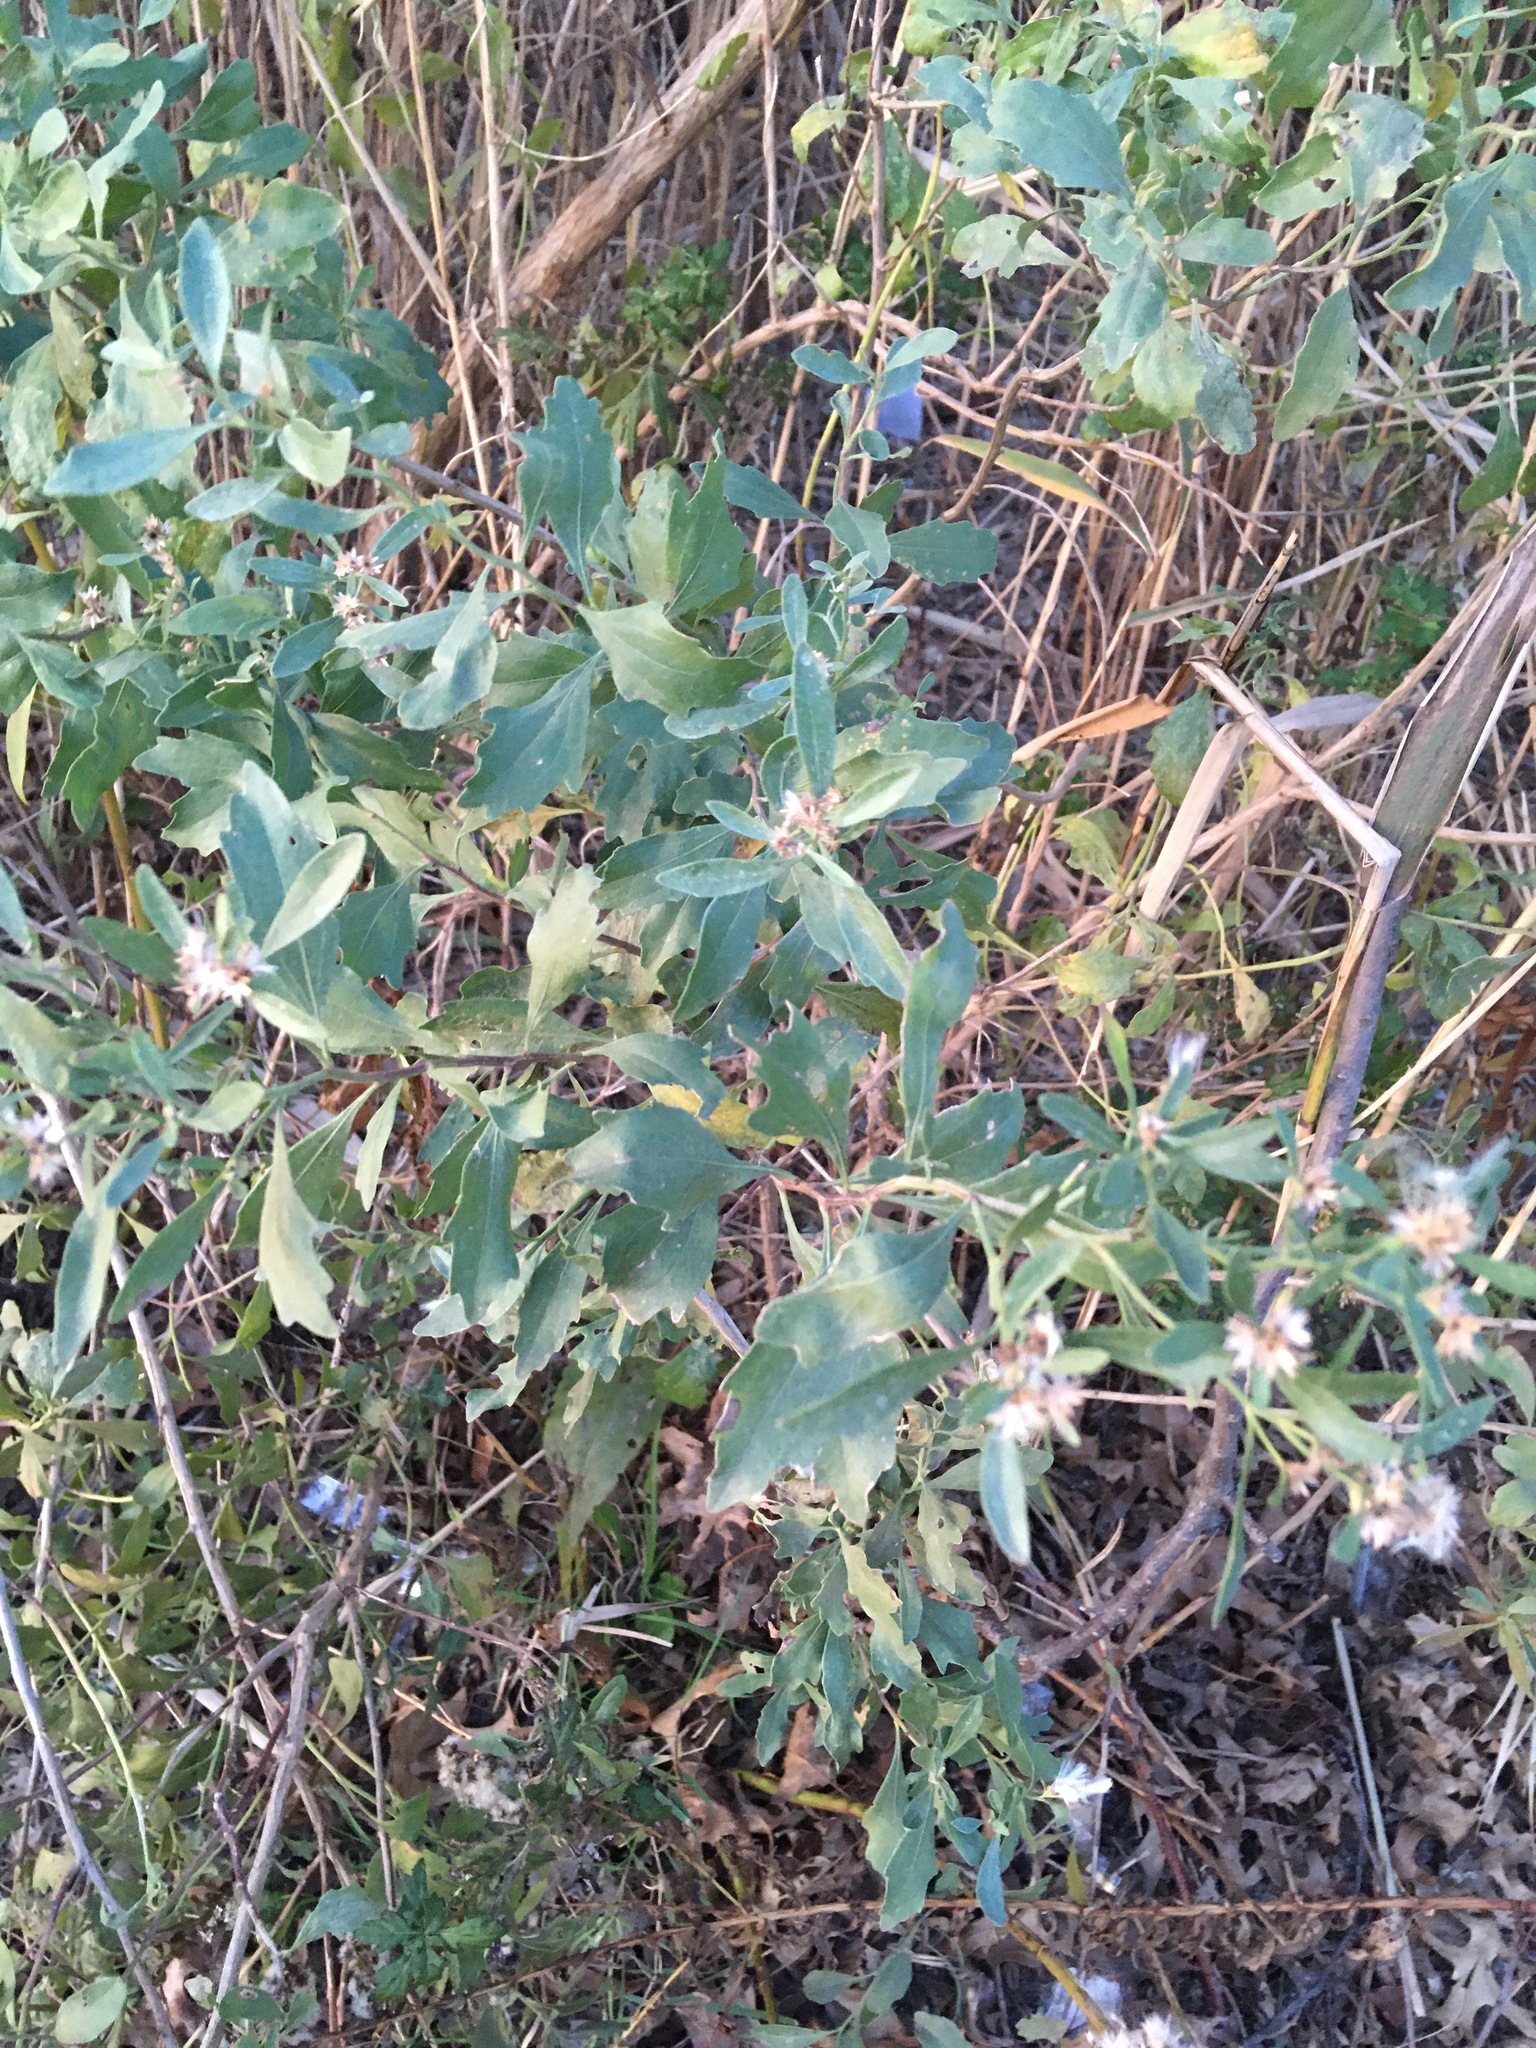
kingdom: Plantae
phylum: Tracheophyta
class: Magnoliopsida
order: Asterales
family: Asteraceae
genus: Baccharis
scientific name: Baccharis halimifolia
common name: Eastern baccharis
